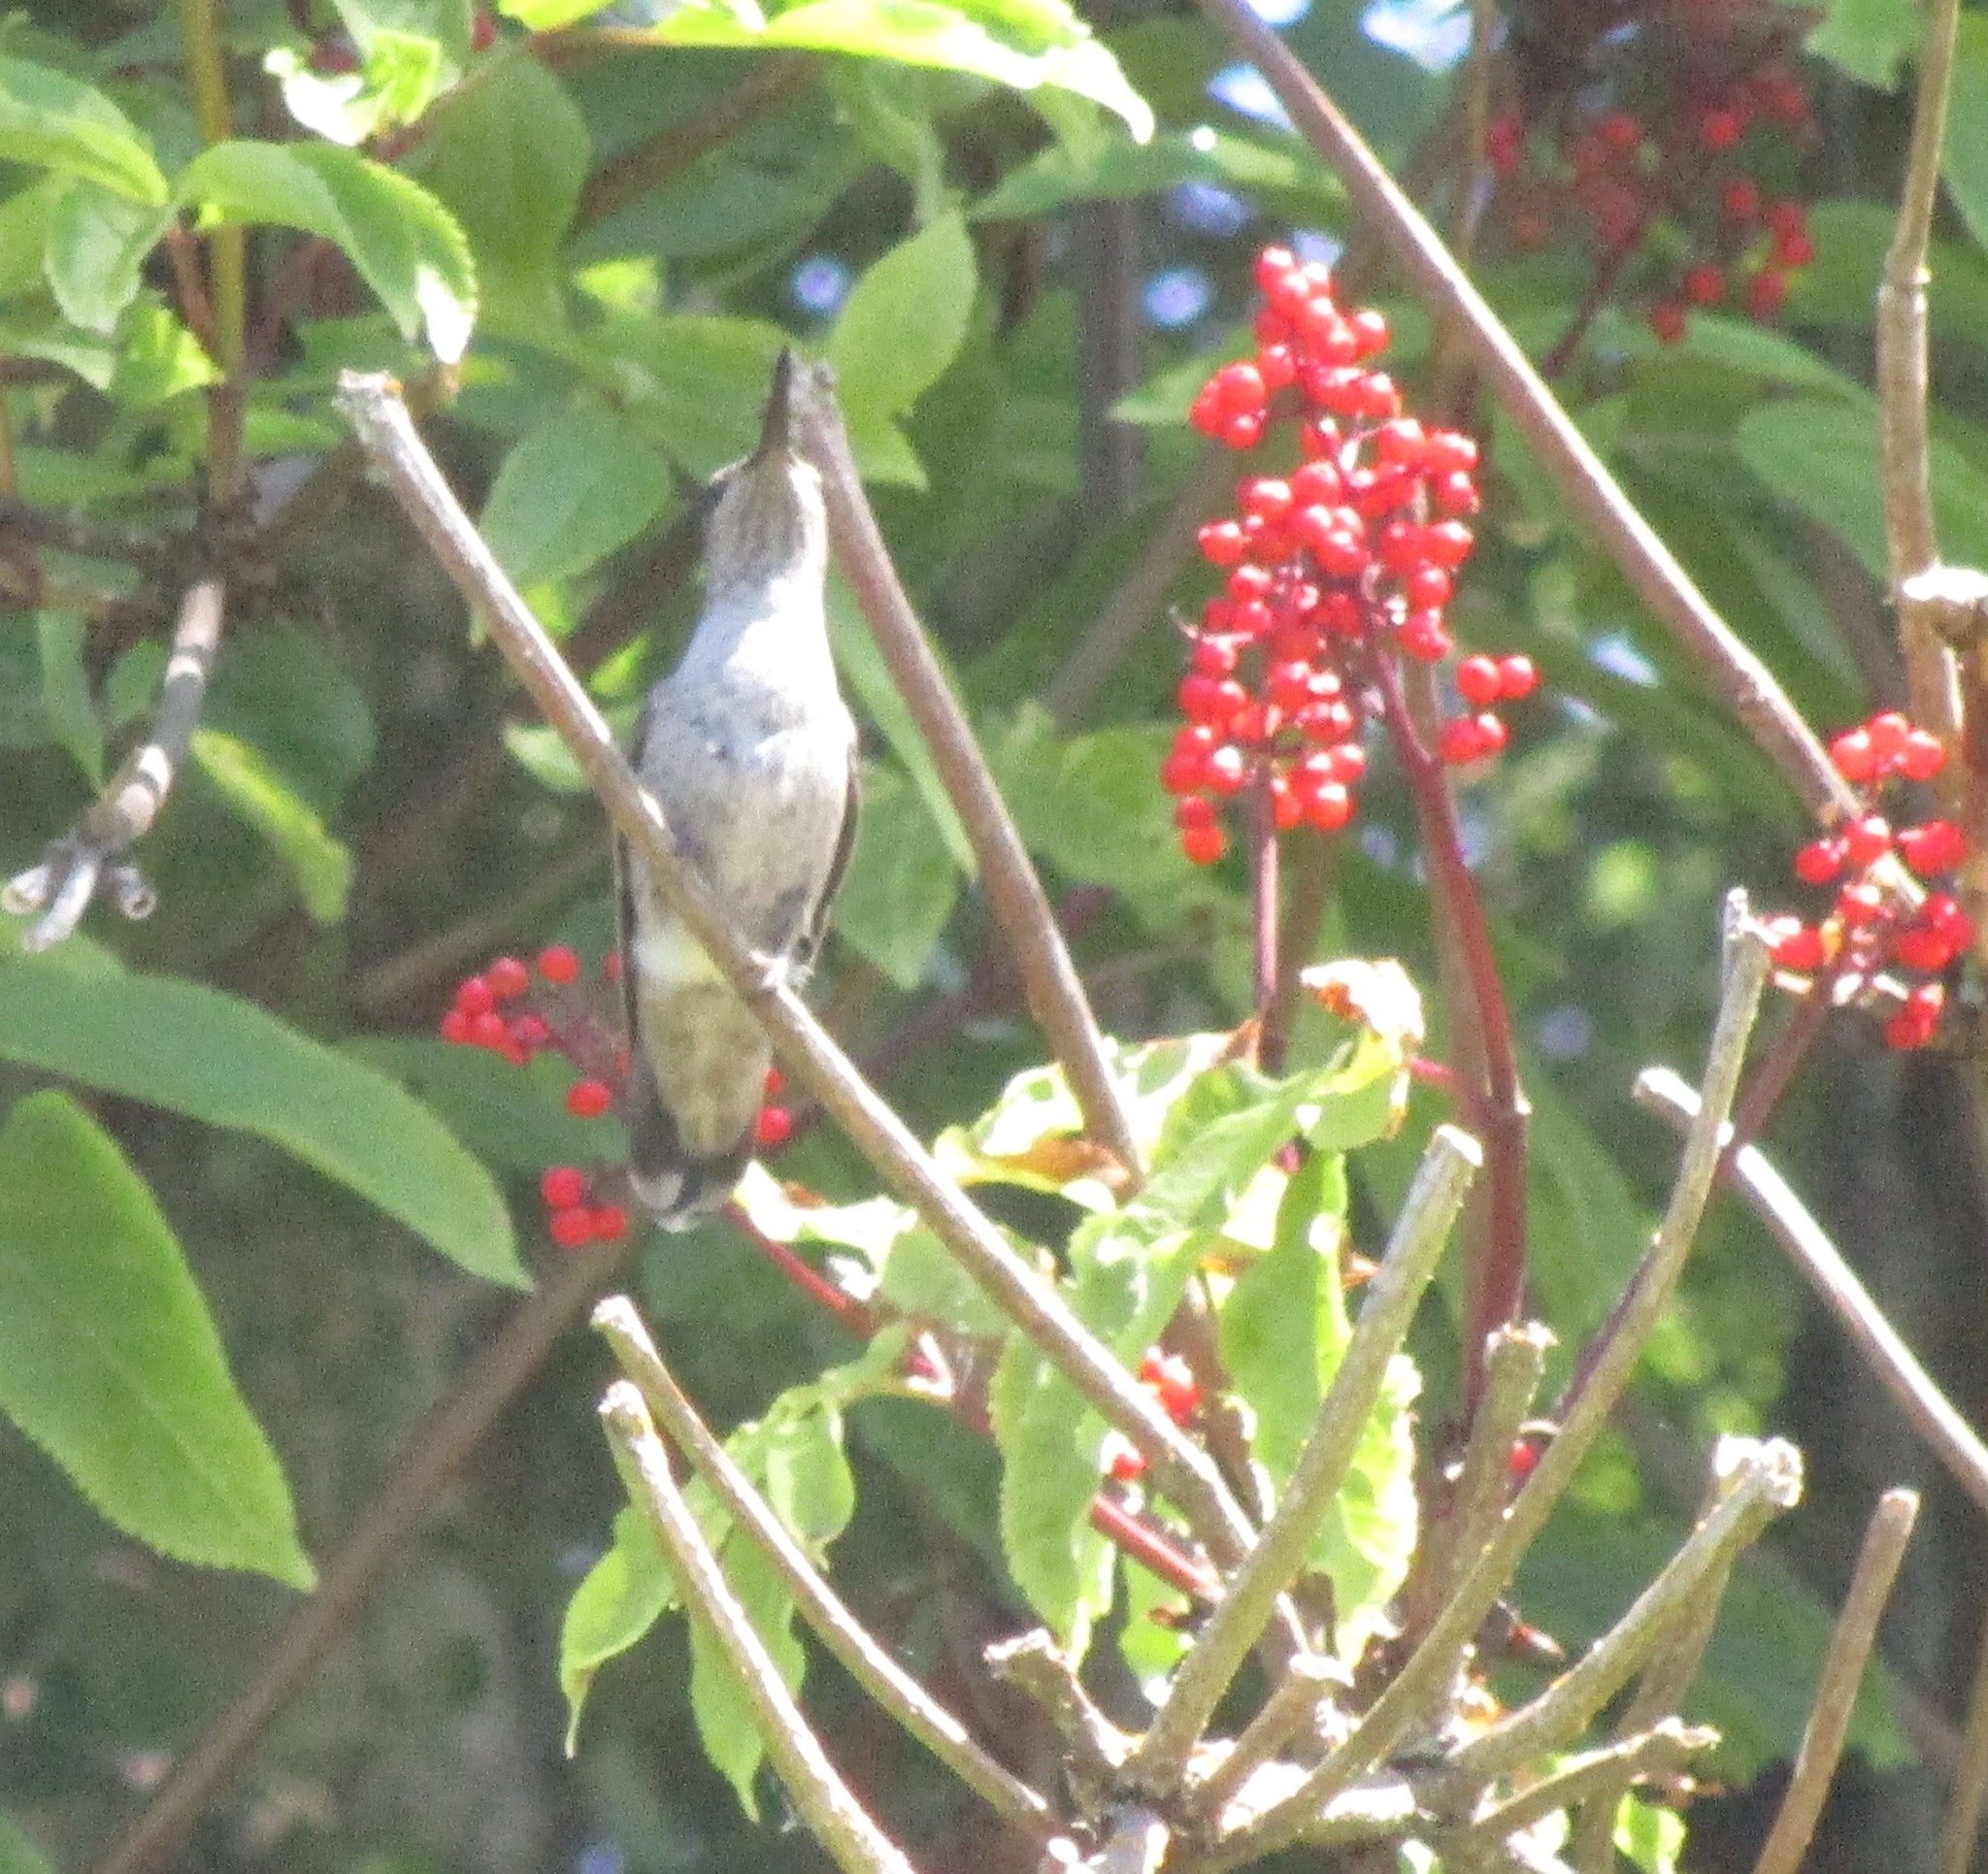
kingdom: Animalia
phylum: Chordata
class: Aves
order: Apodiformes
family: Trochilidae
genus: Calypte
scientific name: Calypte anna
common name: Anna's hummingbird
